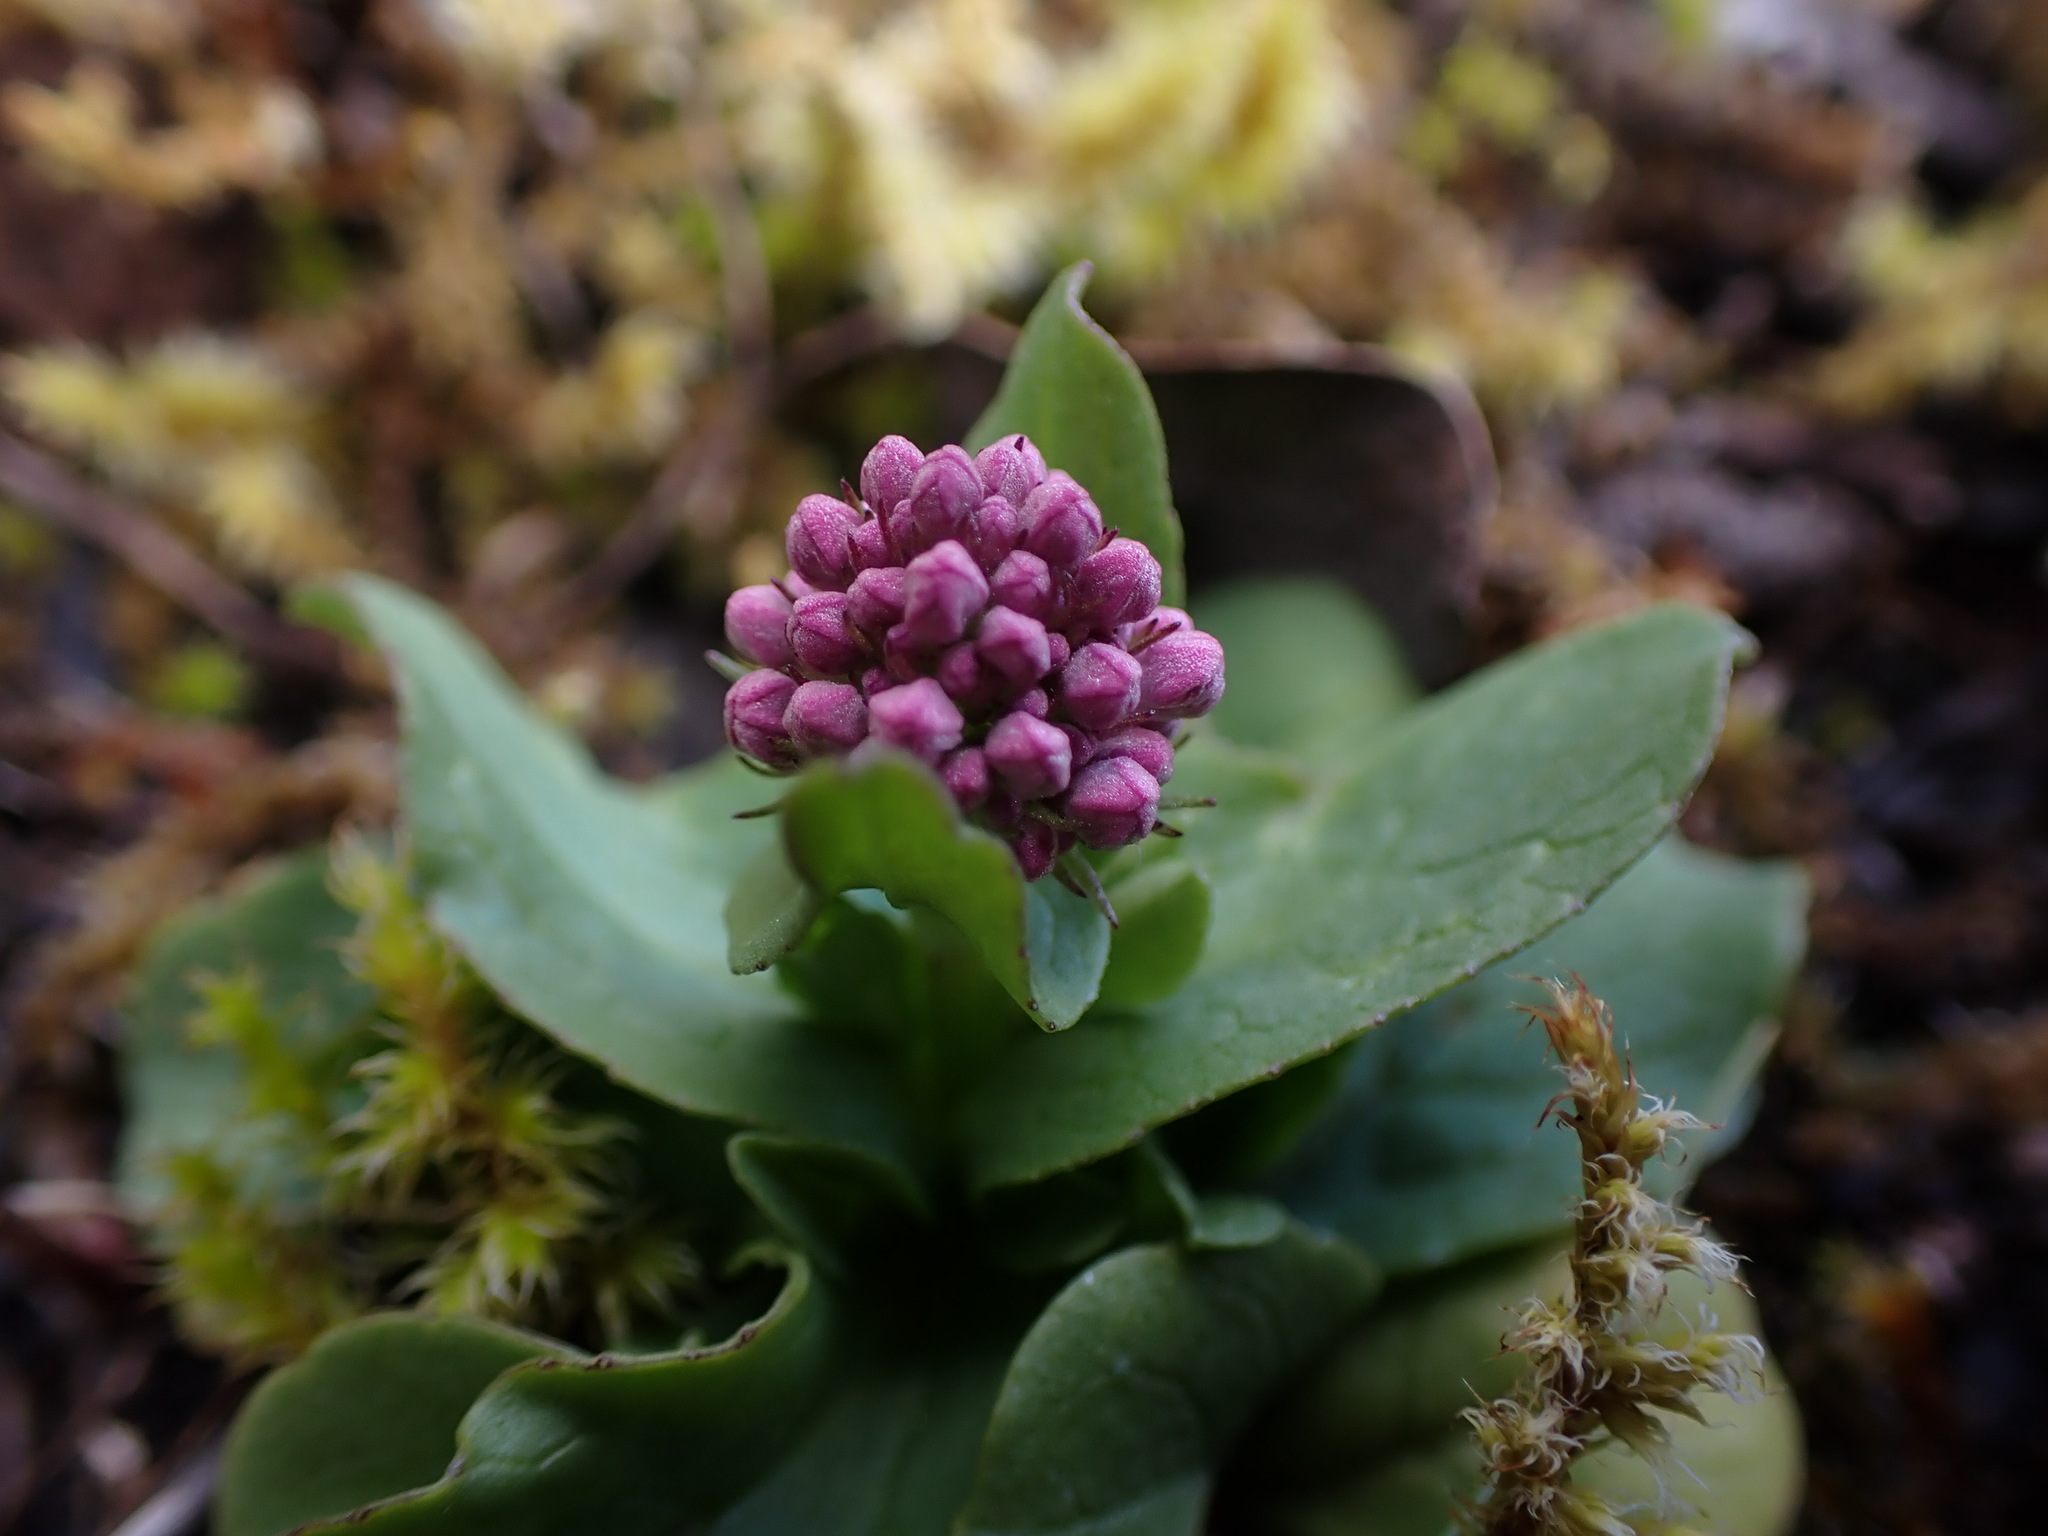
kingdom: Plantae
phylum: Tracheophyta
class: Magnoliopsida
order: Dipsacales
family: Caprifoliaceae
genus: Plectritis
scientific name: Plectritis congesta
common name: Pink plectritis
